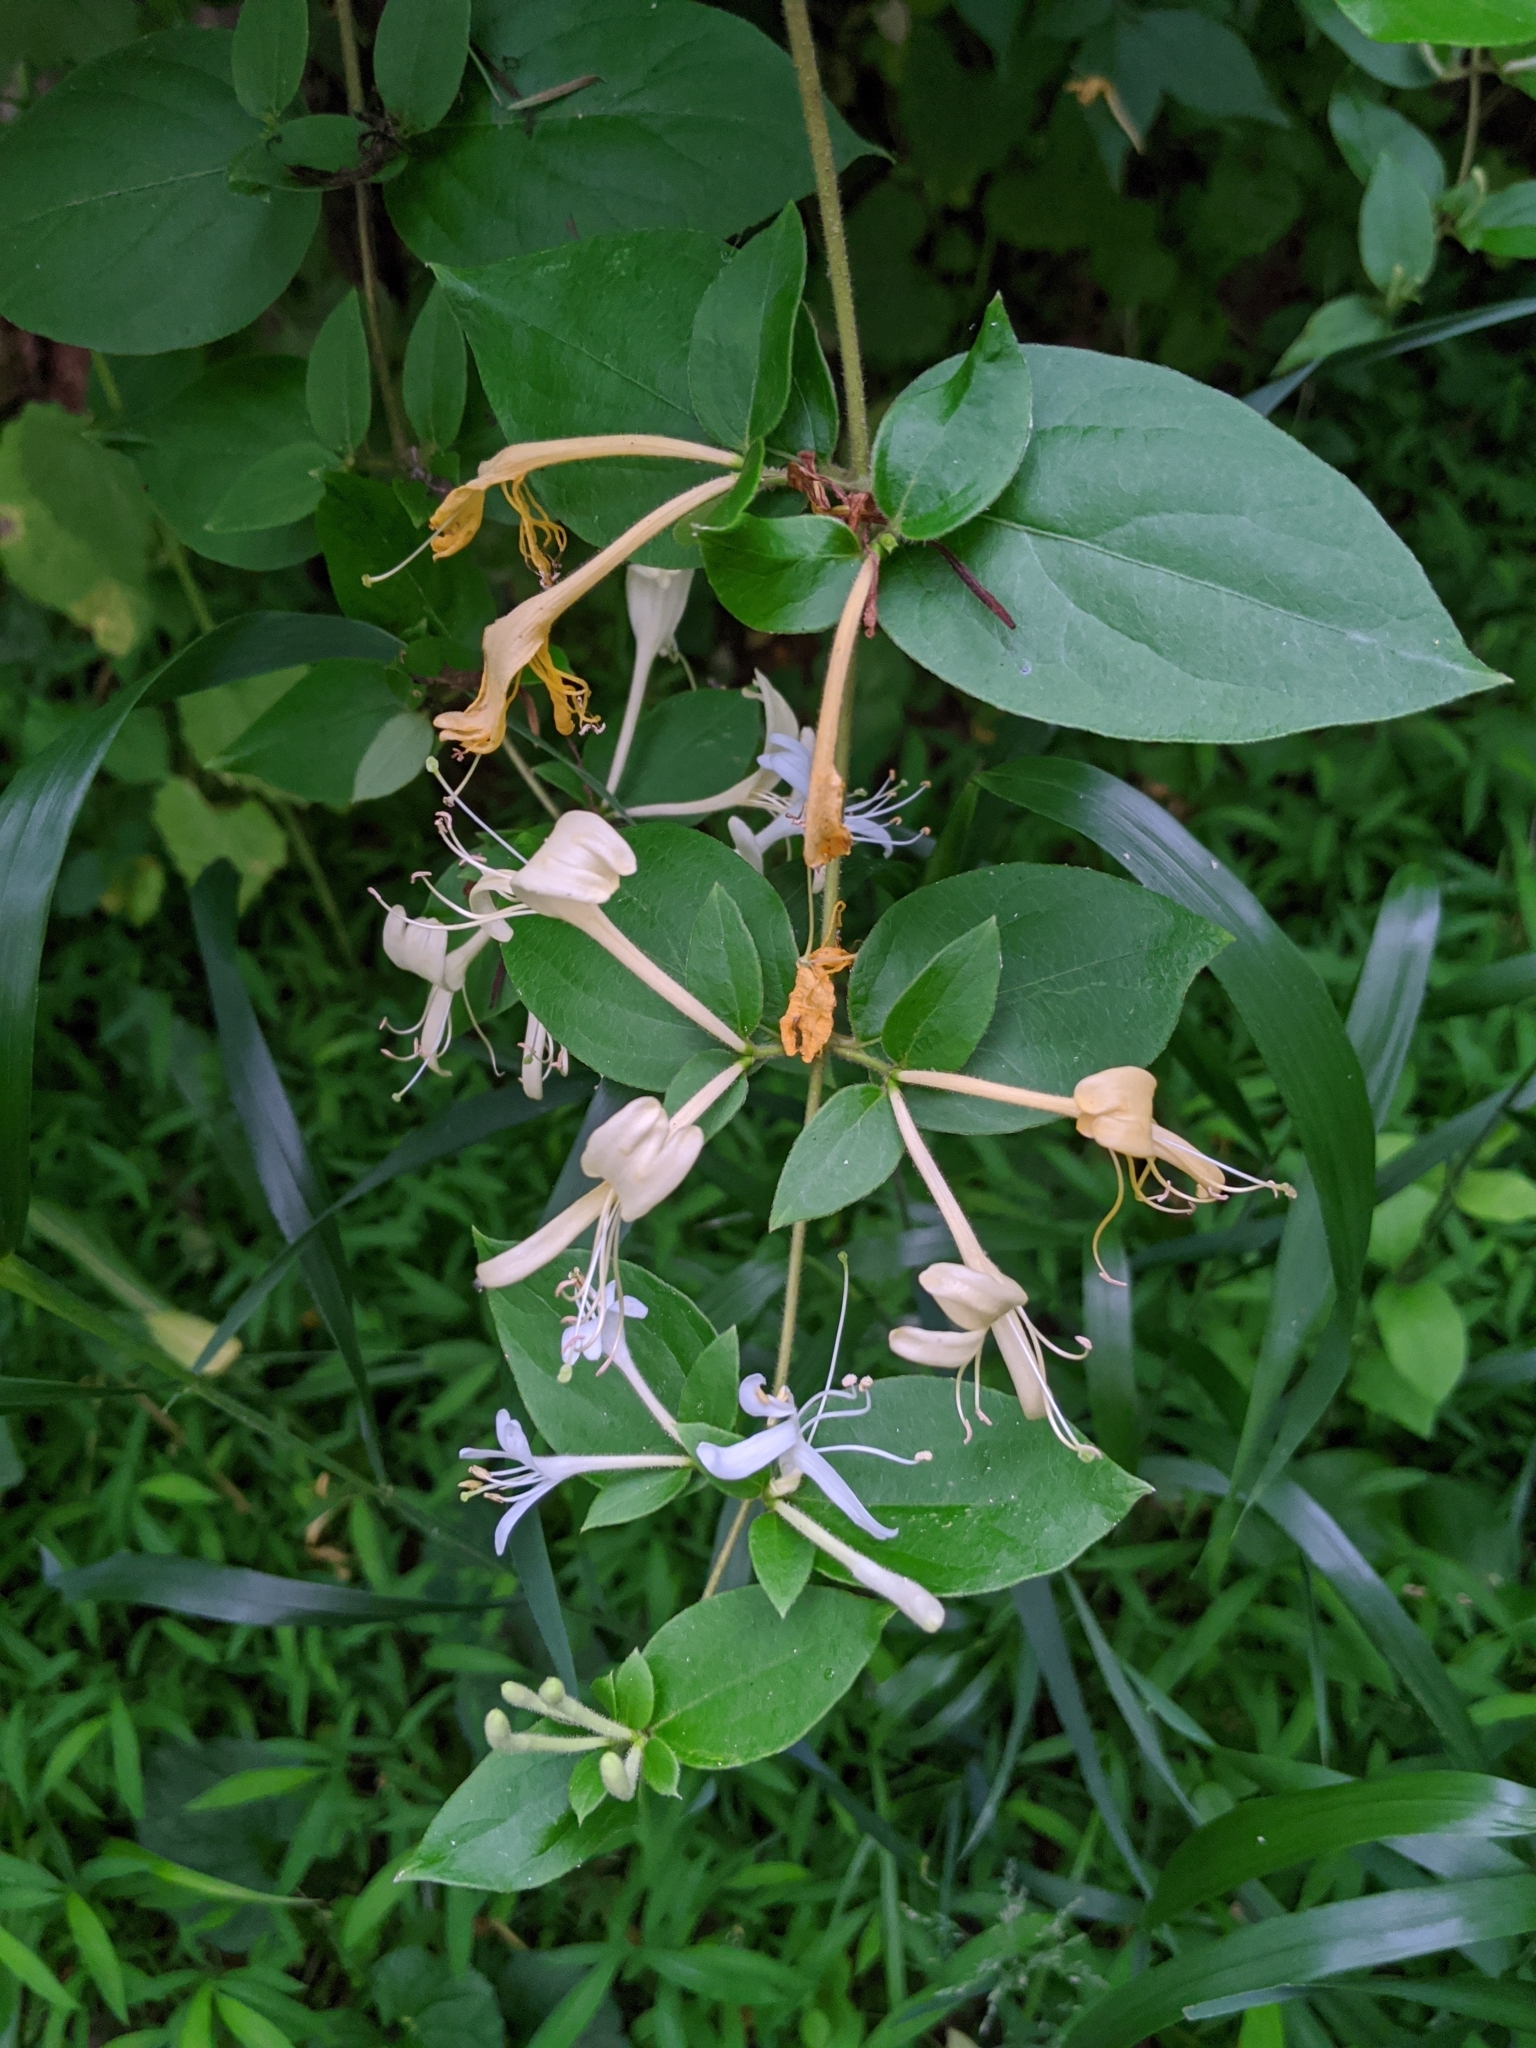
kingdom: Plantae
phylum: Tracheophyta
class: Magnoliopsida
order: Dipsacales
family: Caprifoliaceae
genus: Lonicera
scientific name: Lonicera japonica
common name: Japanese honeysuckle
